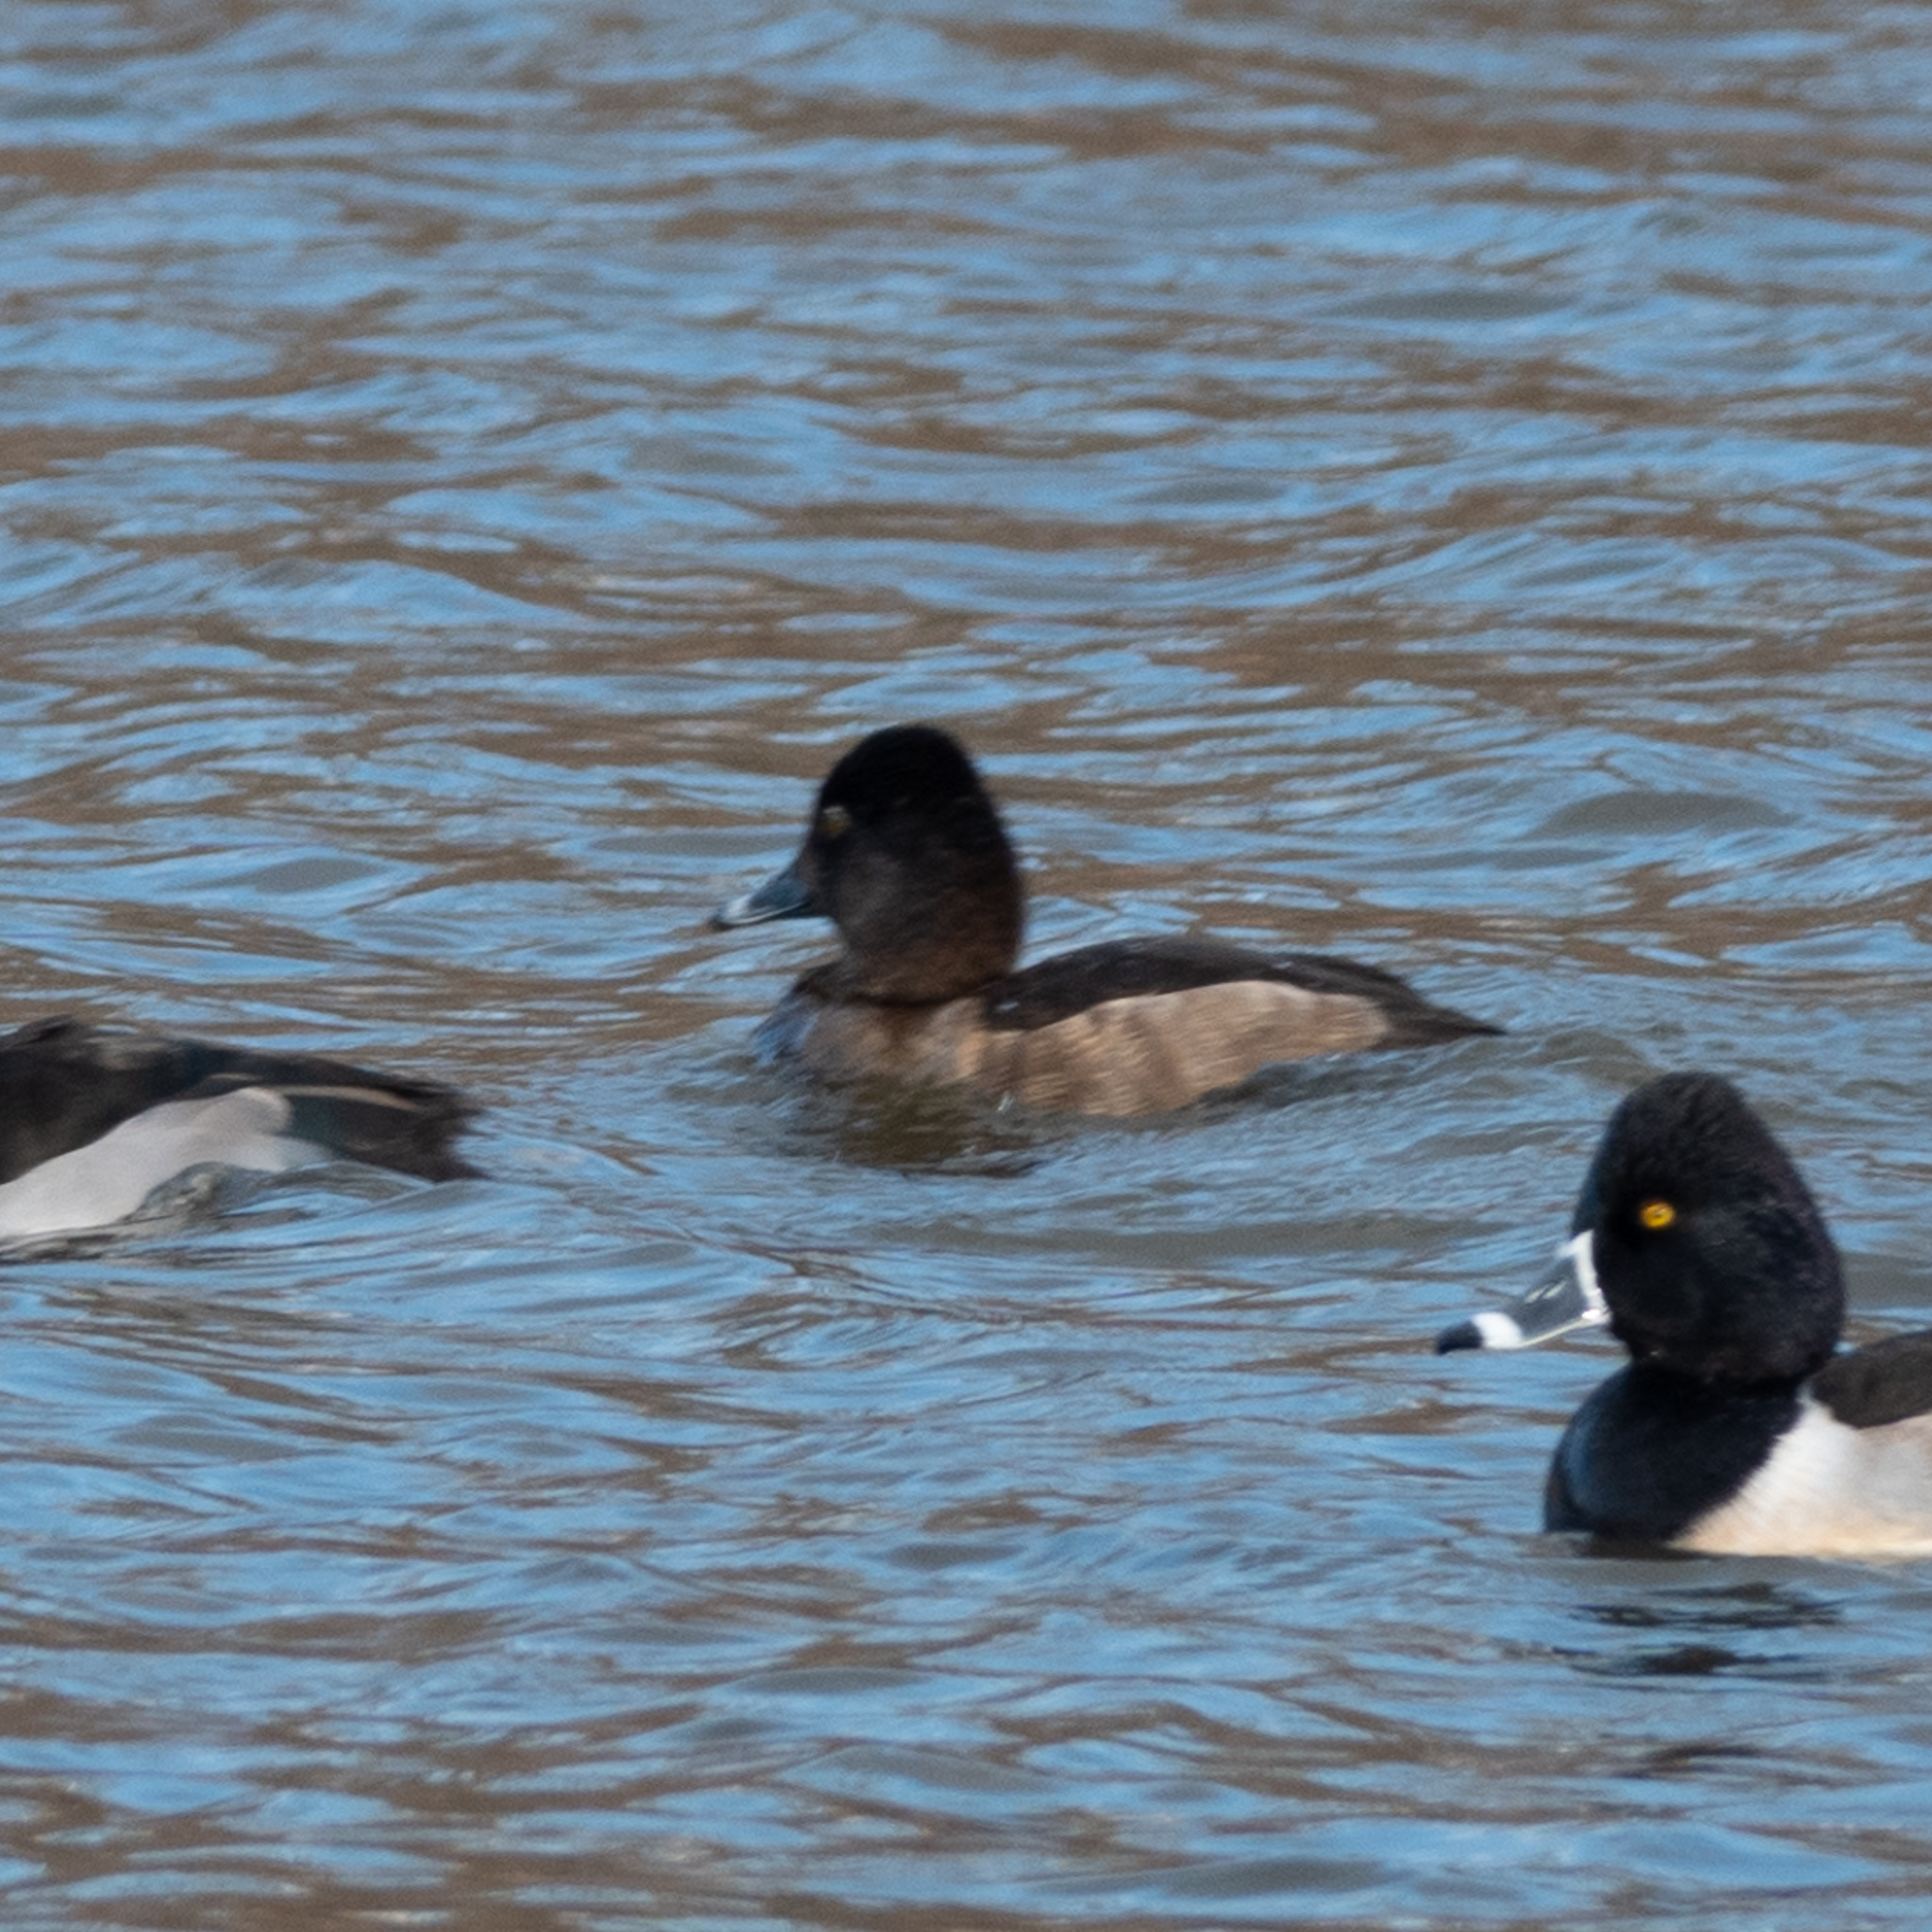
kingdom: Animalia
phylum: Chordata
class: Aves
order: Anseriformes
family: Anatidae
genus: Aythya
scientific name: Aythya collaris
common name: Ring-necked duck
